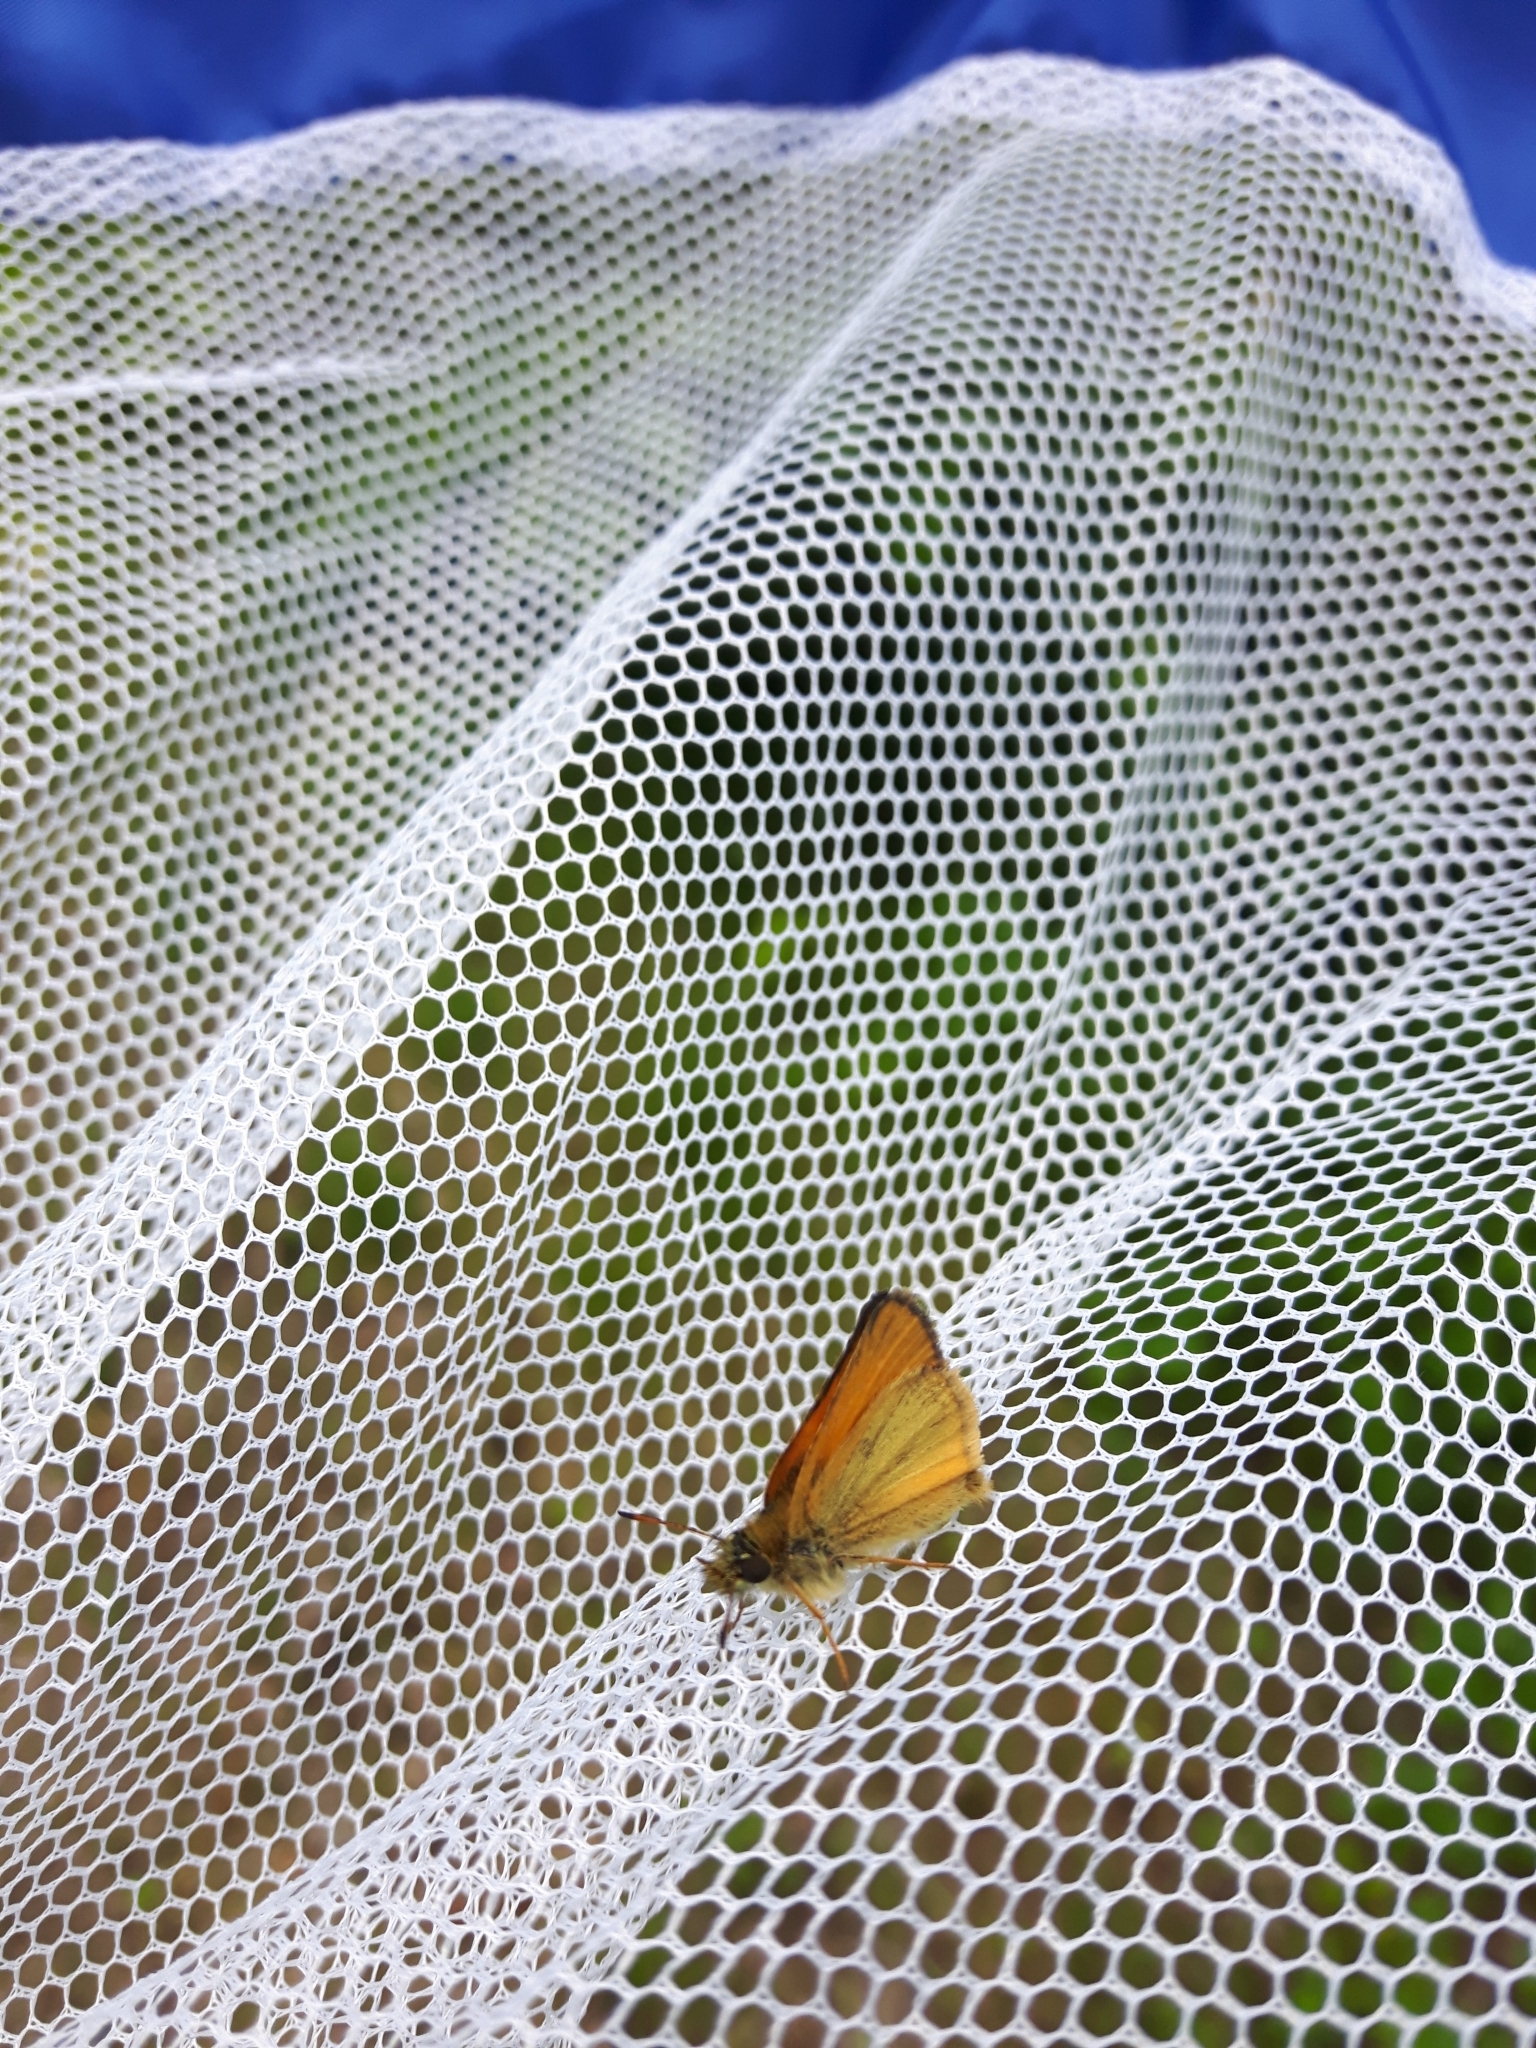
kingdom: Animalia
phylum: Arthropoda
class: Insecta
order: Lepidoptera
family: Hesperiidae
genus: Thymelicus
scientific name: Thymelicus lineola
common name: Essex skipper
